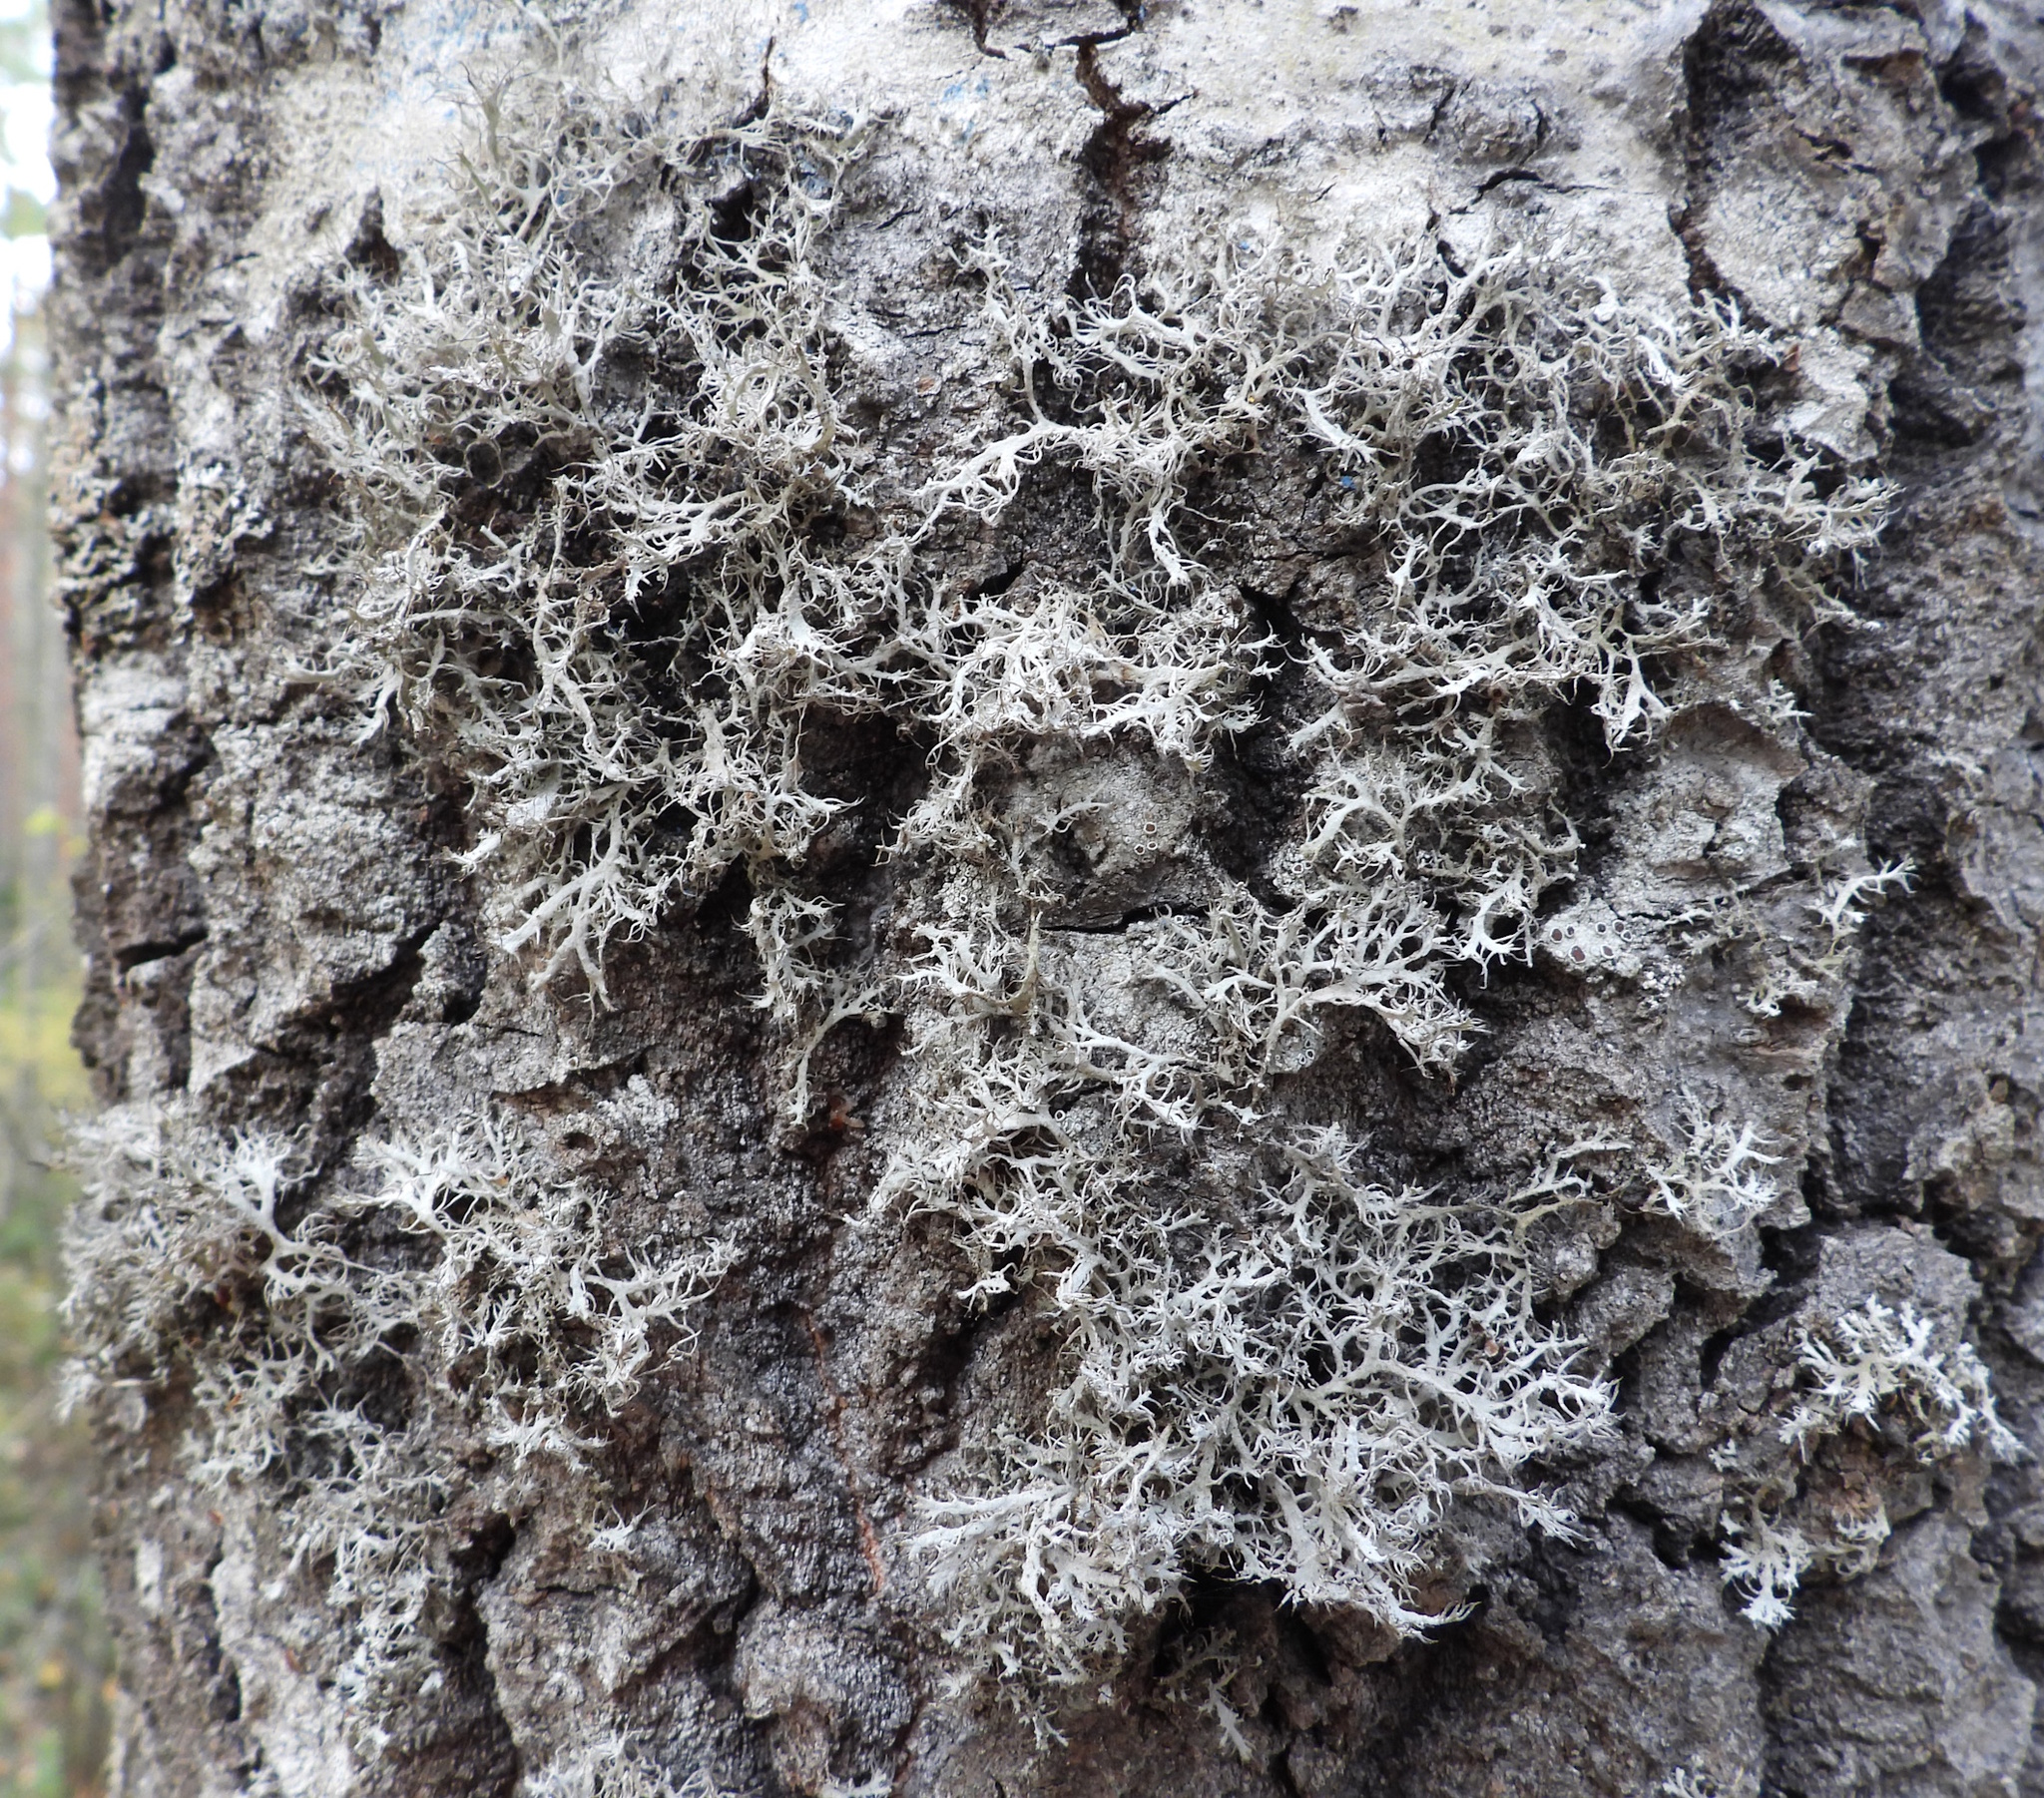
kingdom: Fungi
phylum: Ascomycota
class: Lecanoromycetes
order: Caliciales
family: Physciaceae
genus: Anaptychia
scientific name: Anaptychia ciliaris
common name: Great ciliated lichen
